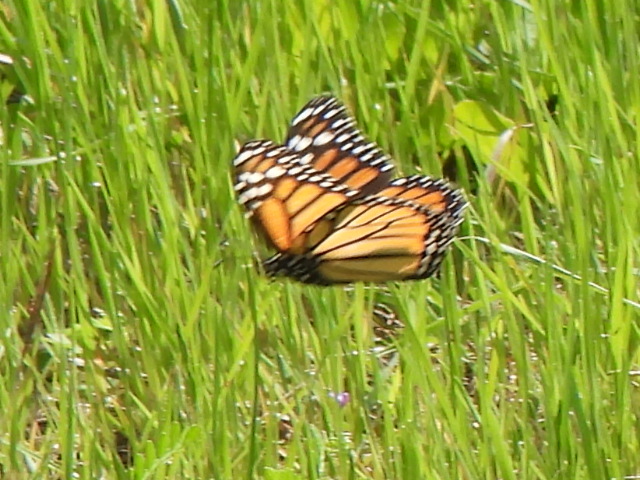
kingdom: Animalia
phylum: Arthropoda
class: Insecta
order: Lepidoptera
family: Nymphalidae
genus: Danaus
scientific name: Danaus plexippus
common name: Monarch
